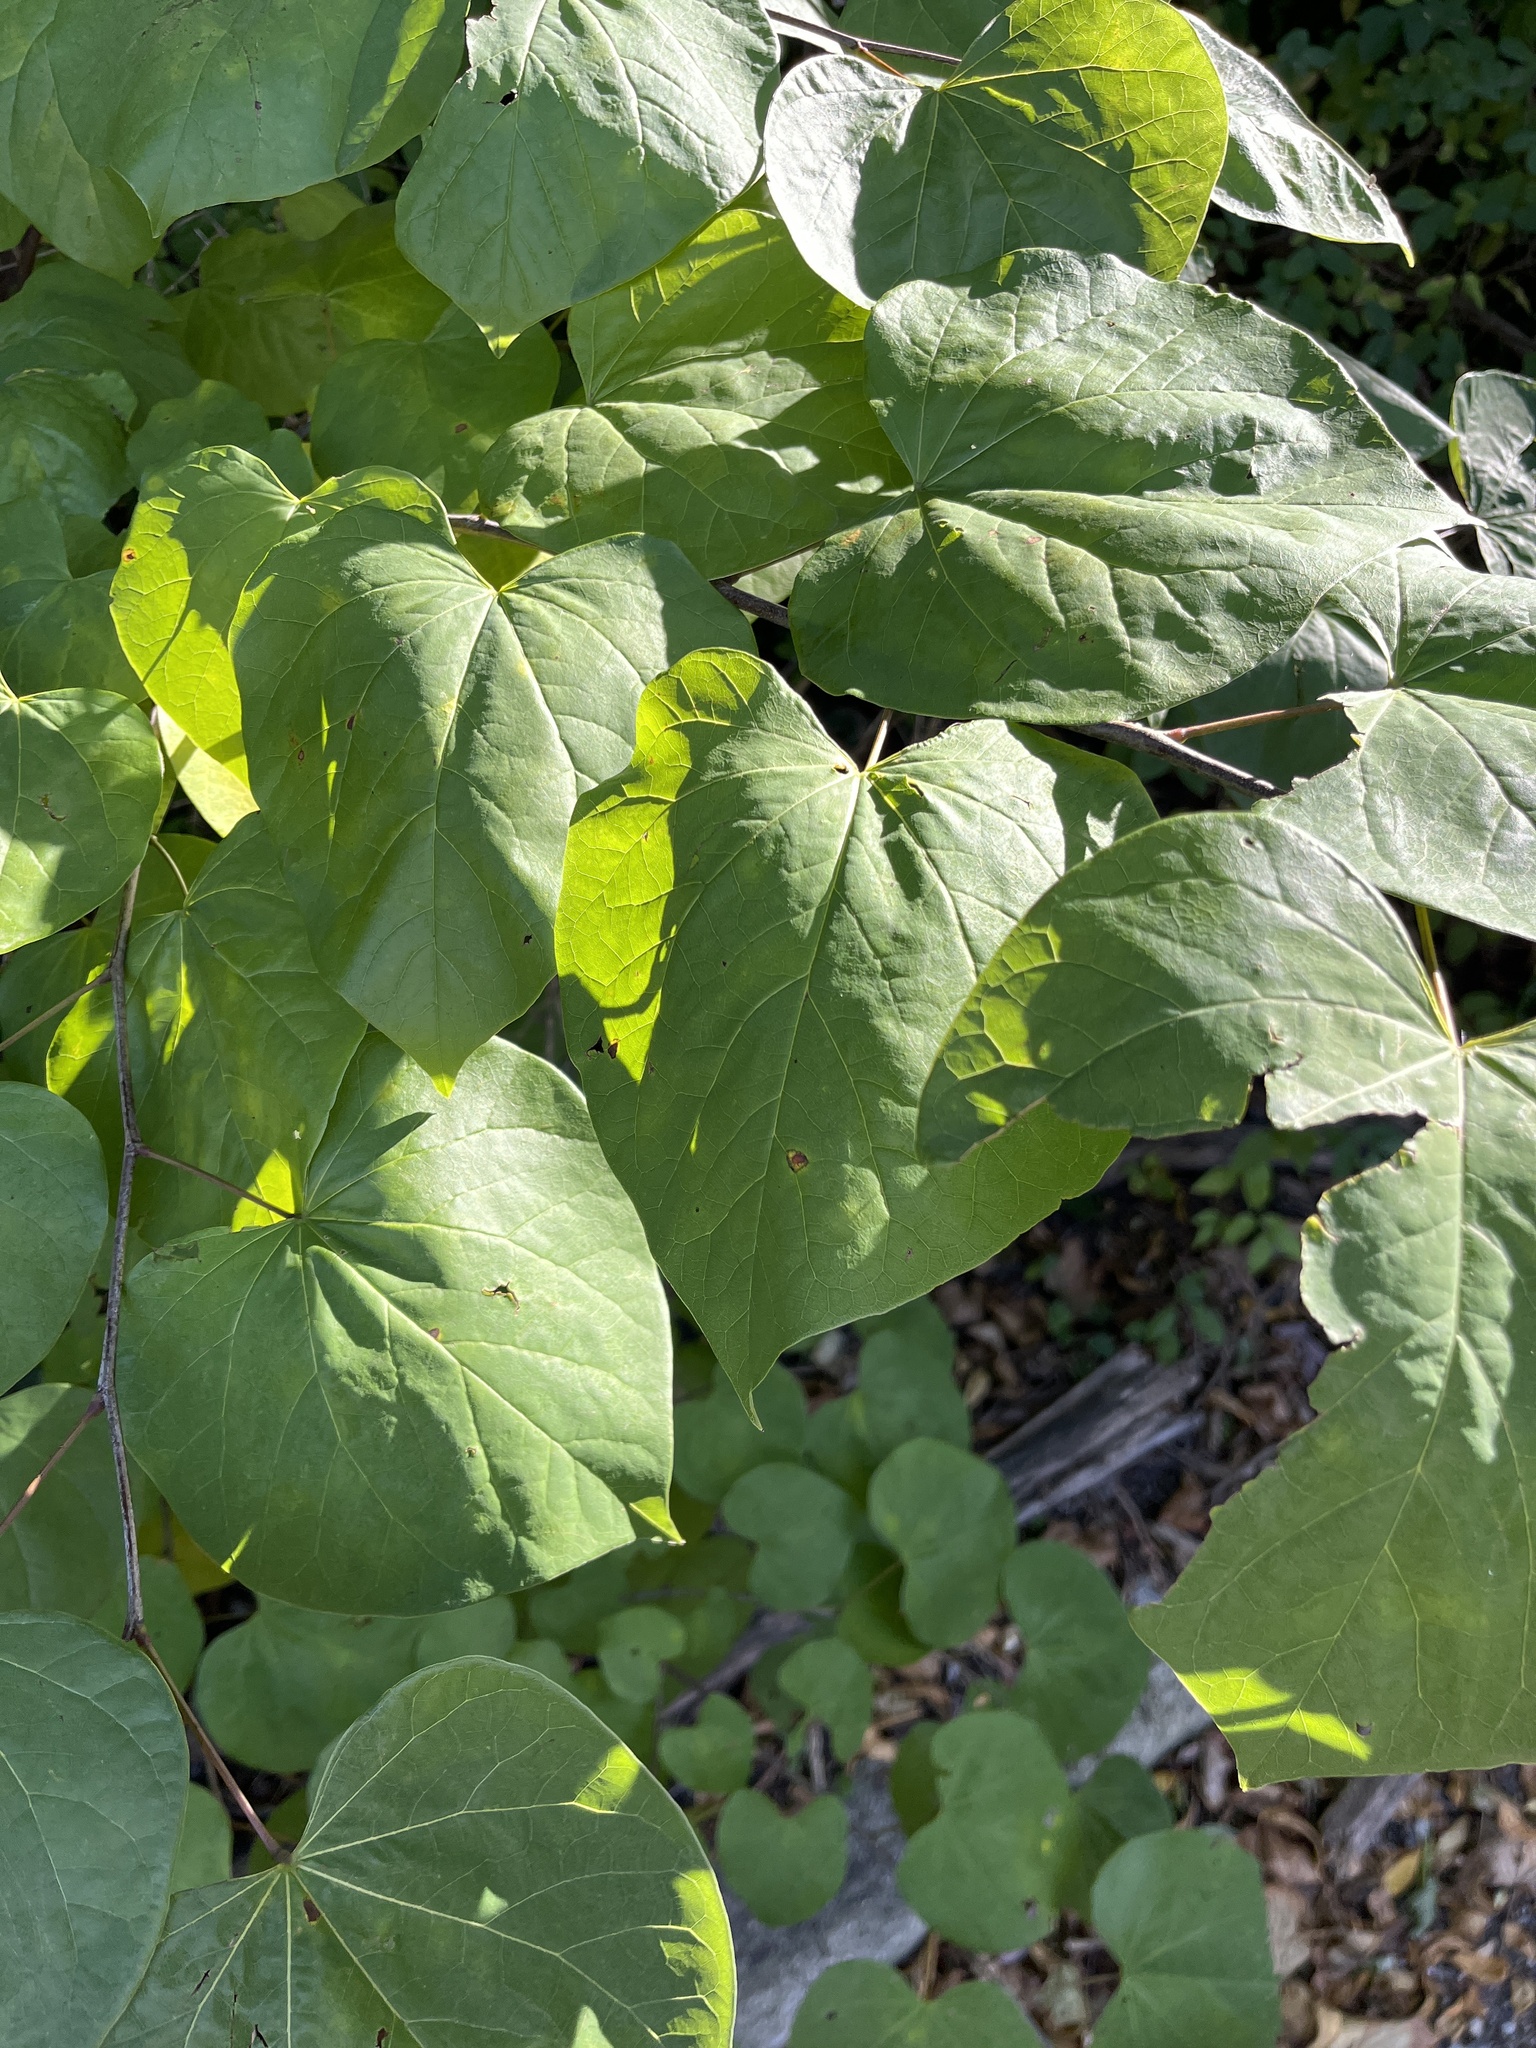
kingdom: Plantae
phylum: Tracheophyta
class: Magnoliopsida
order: Fabales
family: Fabaceae
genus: Cercis
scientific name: Cercis canadensis
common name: Eastern redbud
